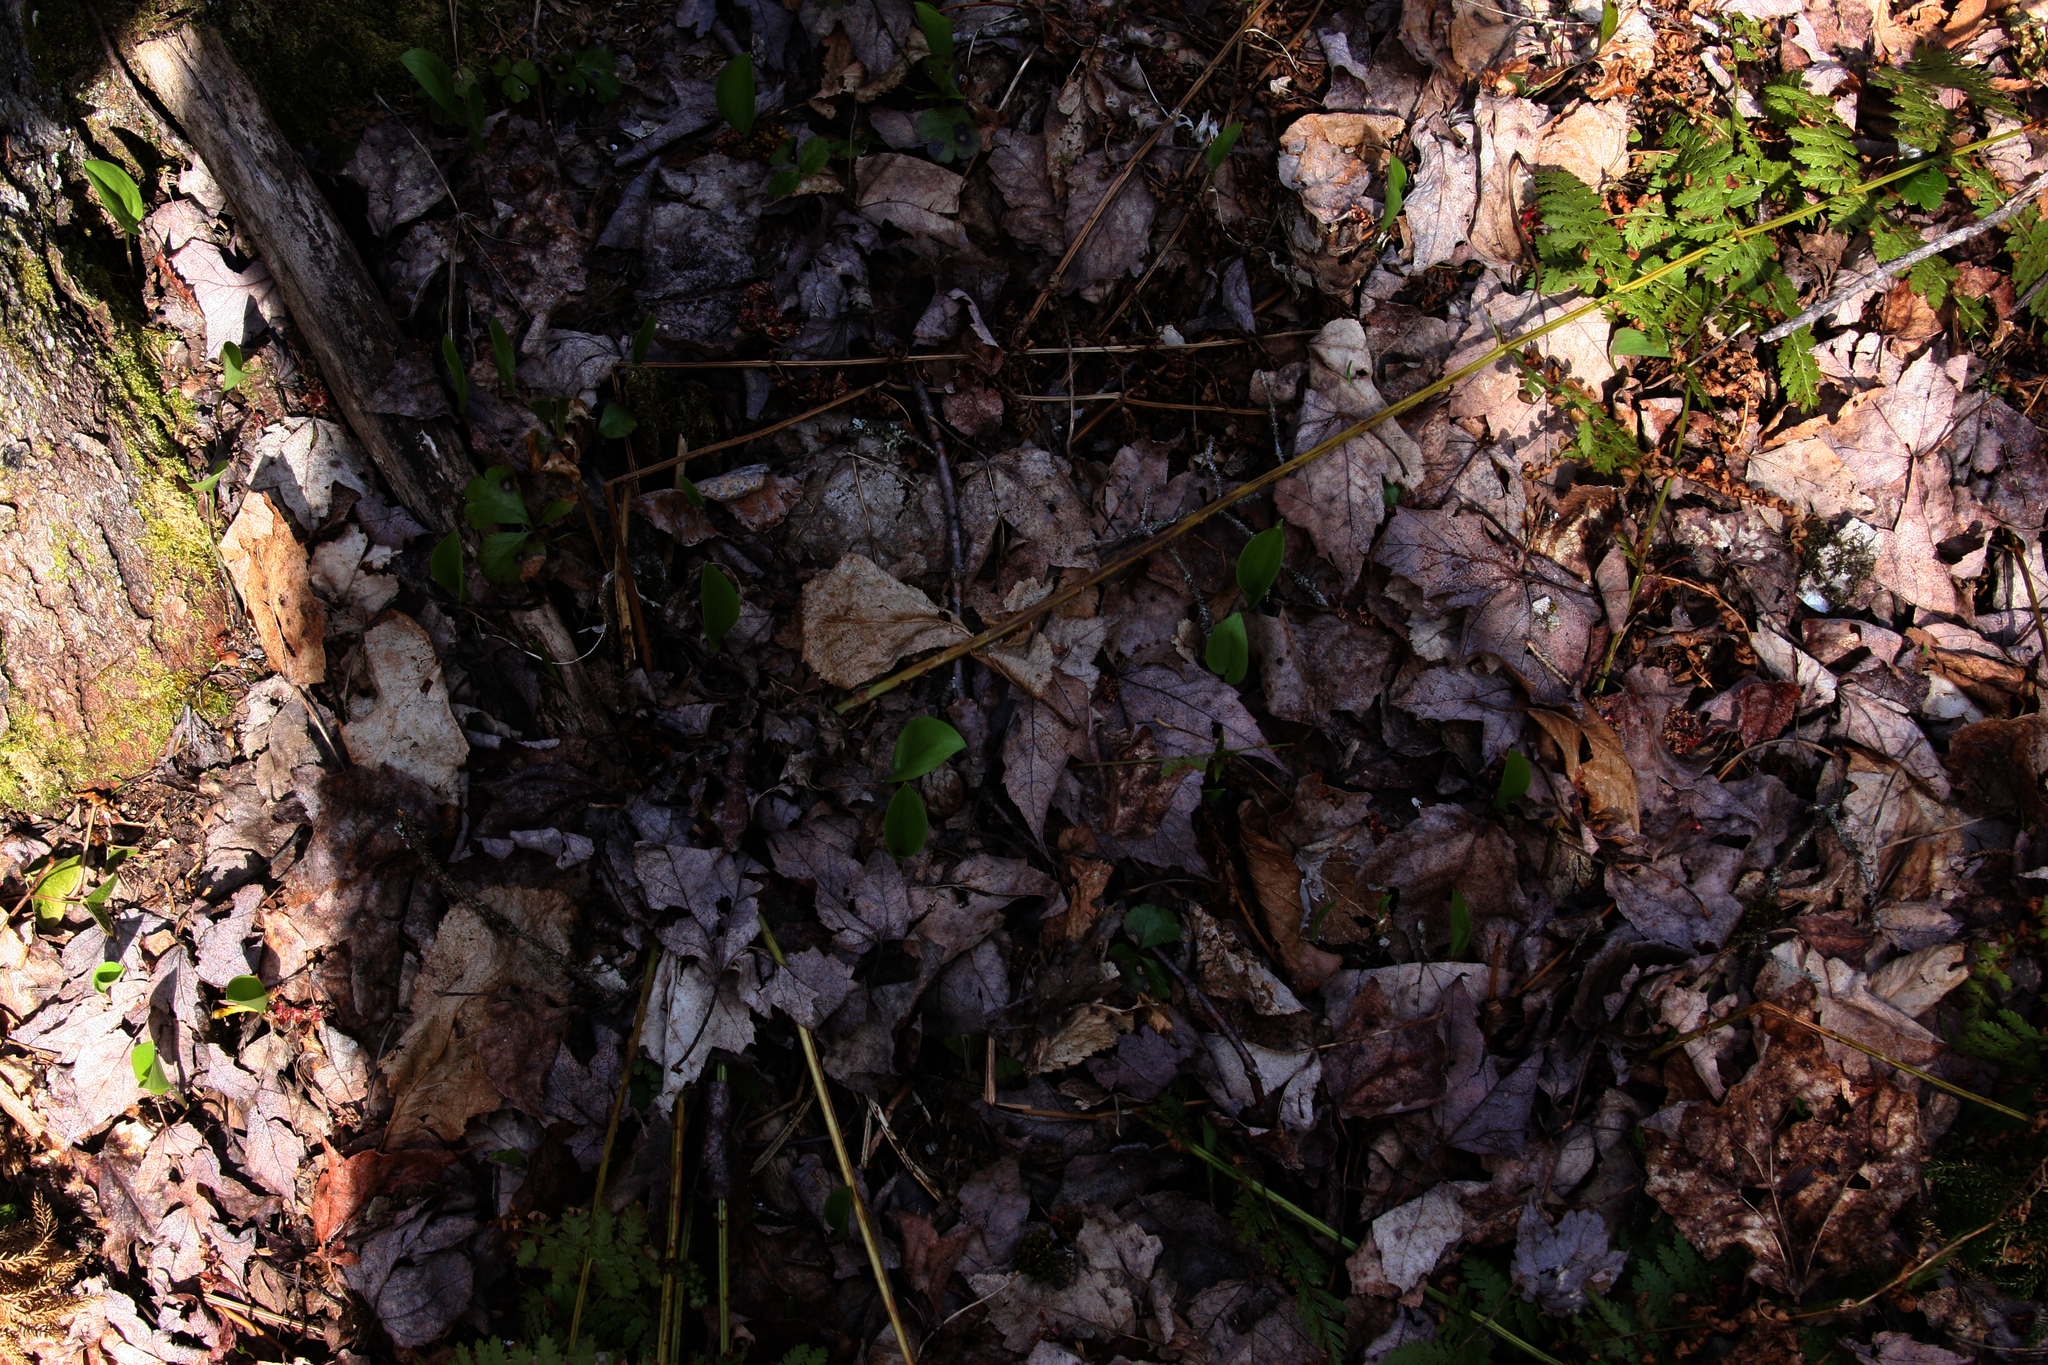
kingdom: Plantae
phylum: Tracheophyta
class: Liliopsida
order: Asparagales
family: Asparagaceae
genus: Maianthemum
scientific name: Maianthemum canadense
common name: False lily-of-the-valley
